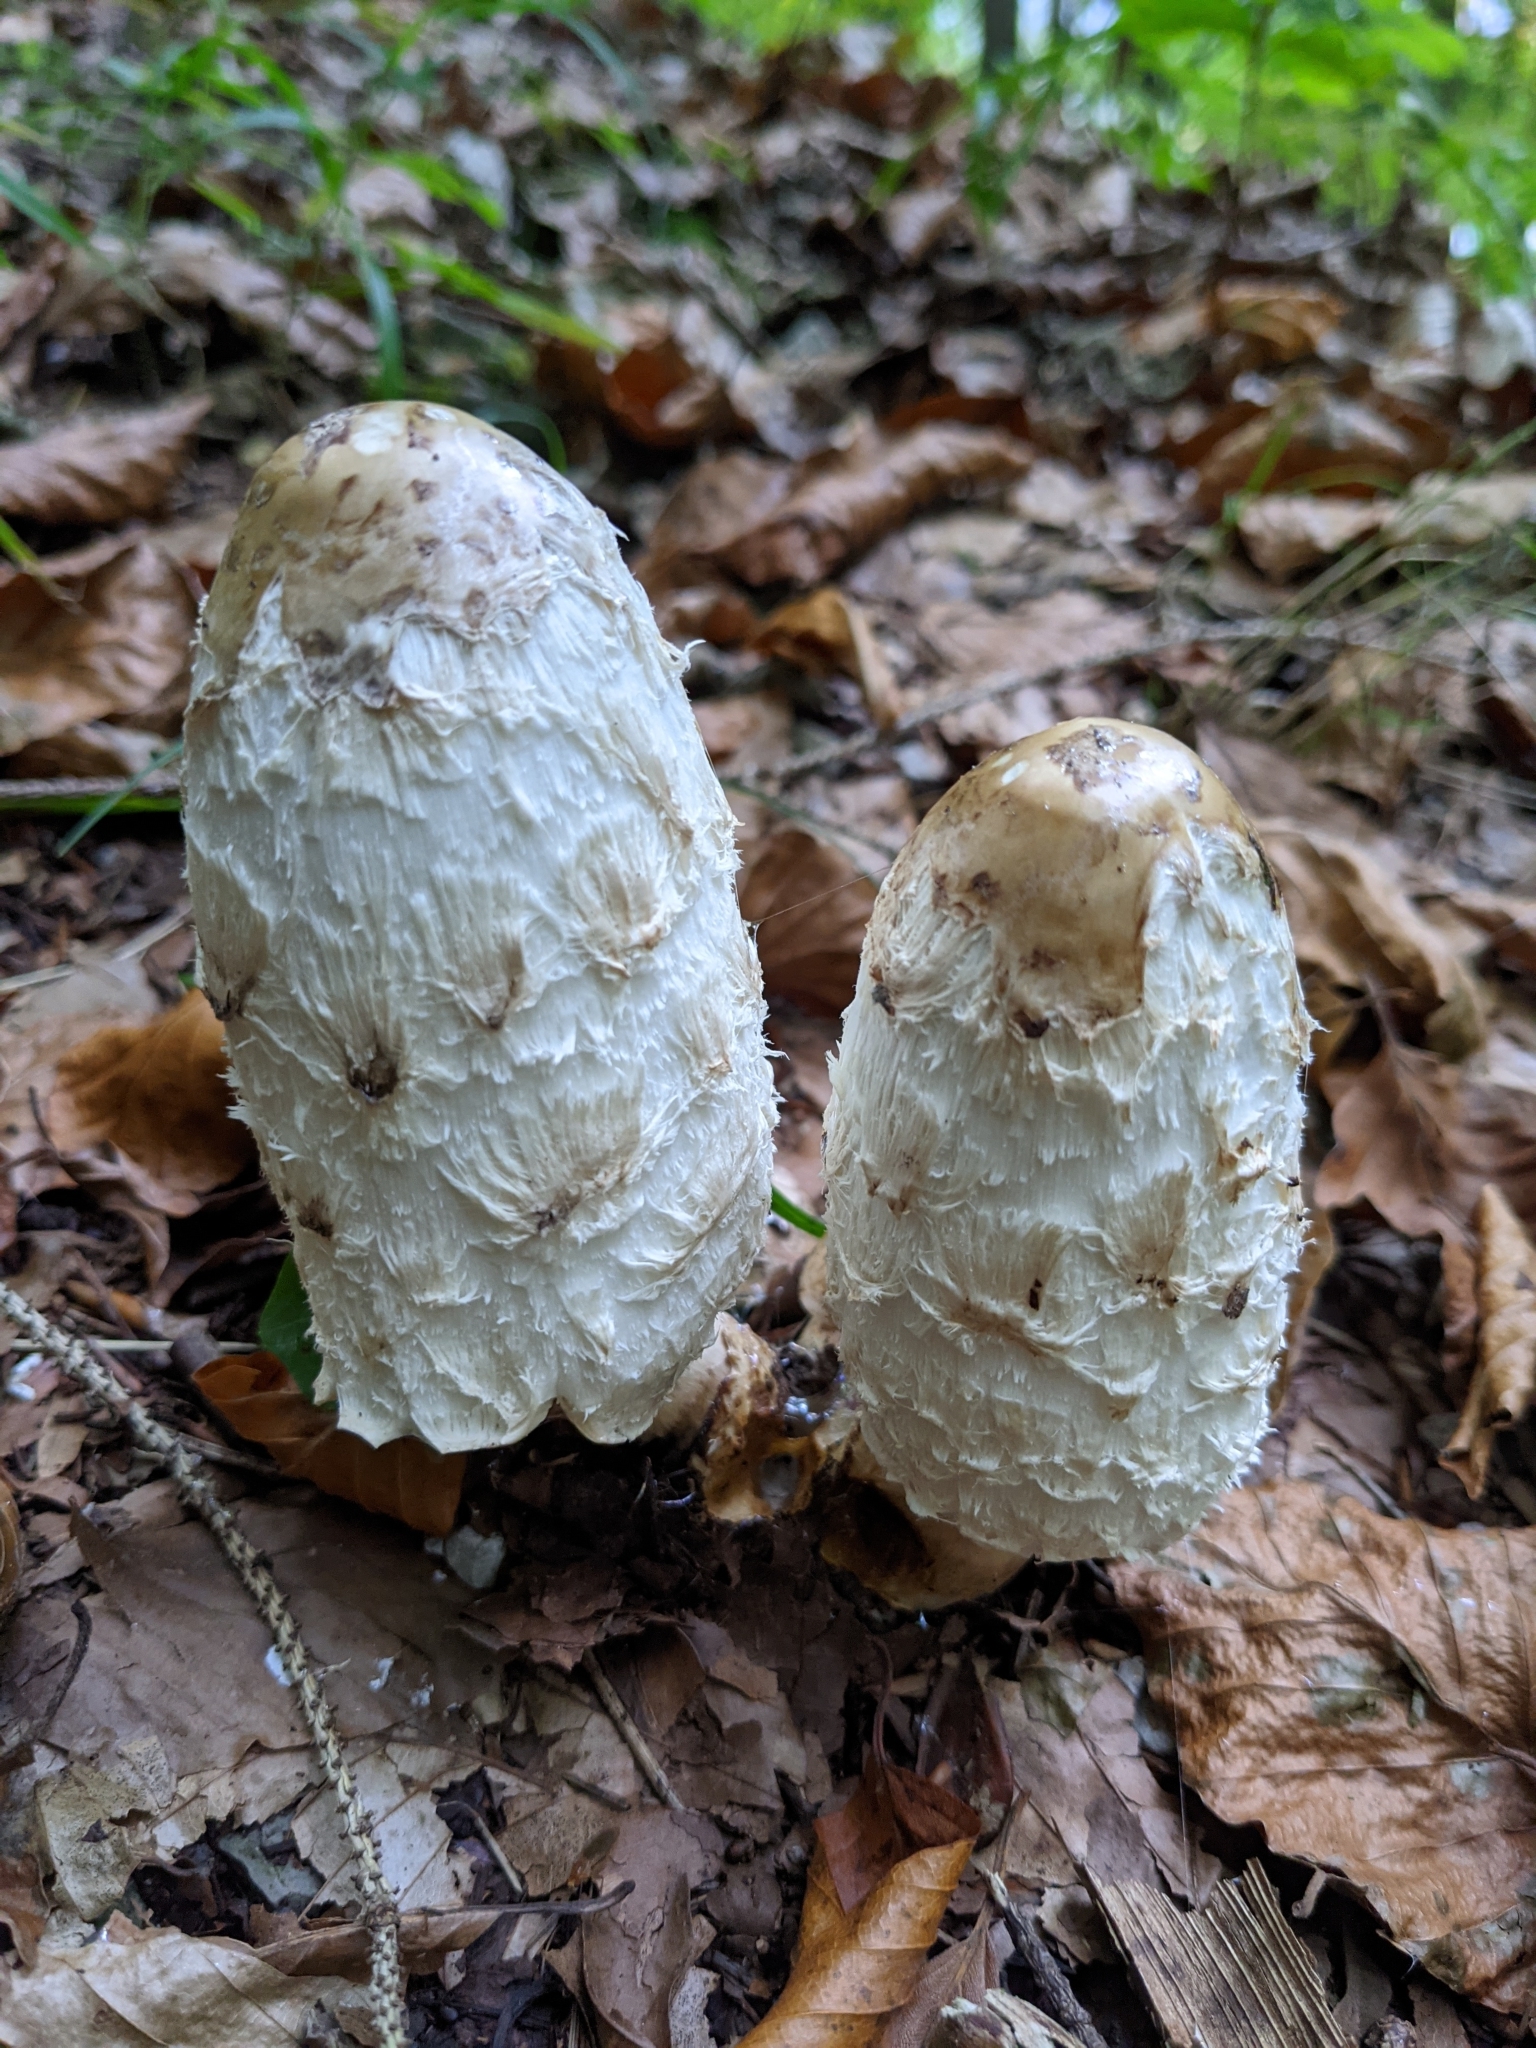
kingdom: Fungi
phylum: Basidiomycota
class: Agaricomycetes
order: Agaricales
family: Agaricaceae
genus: Coprinus
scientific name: Coprinus comatus
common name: Lawyer's wig
